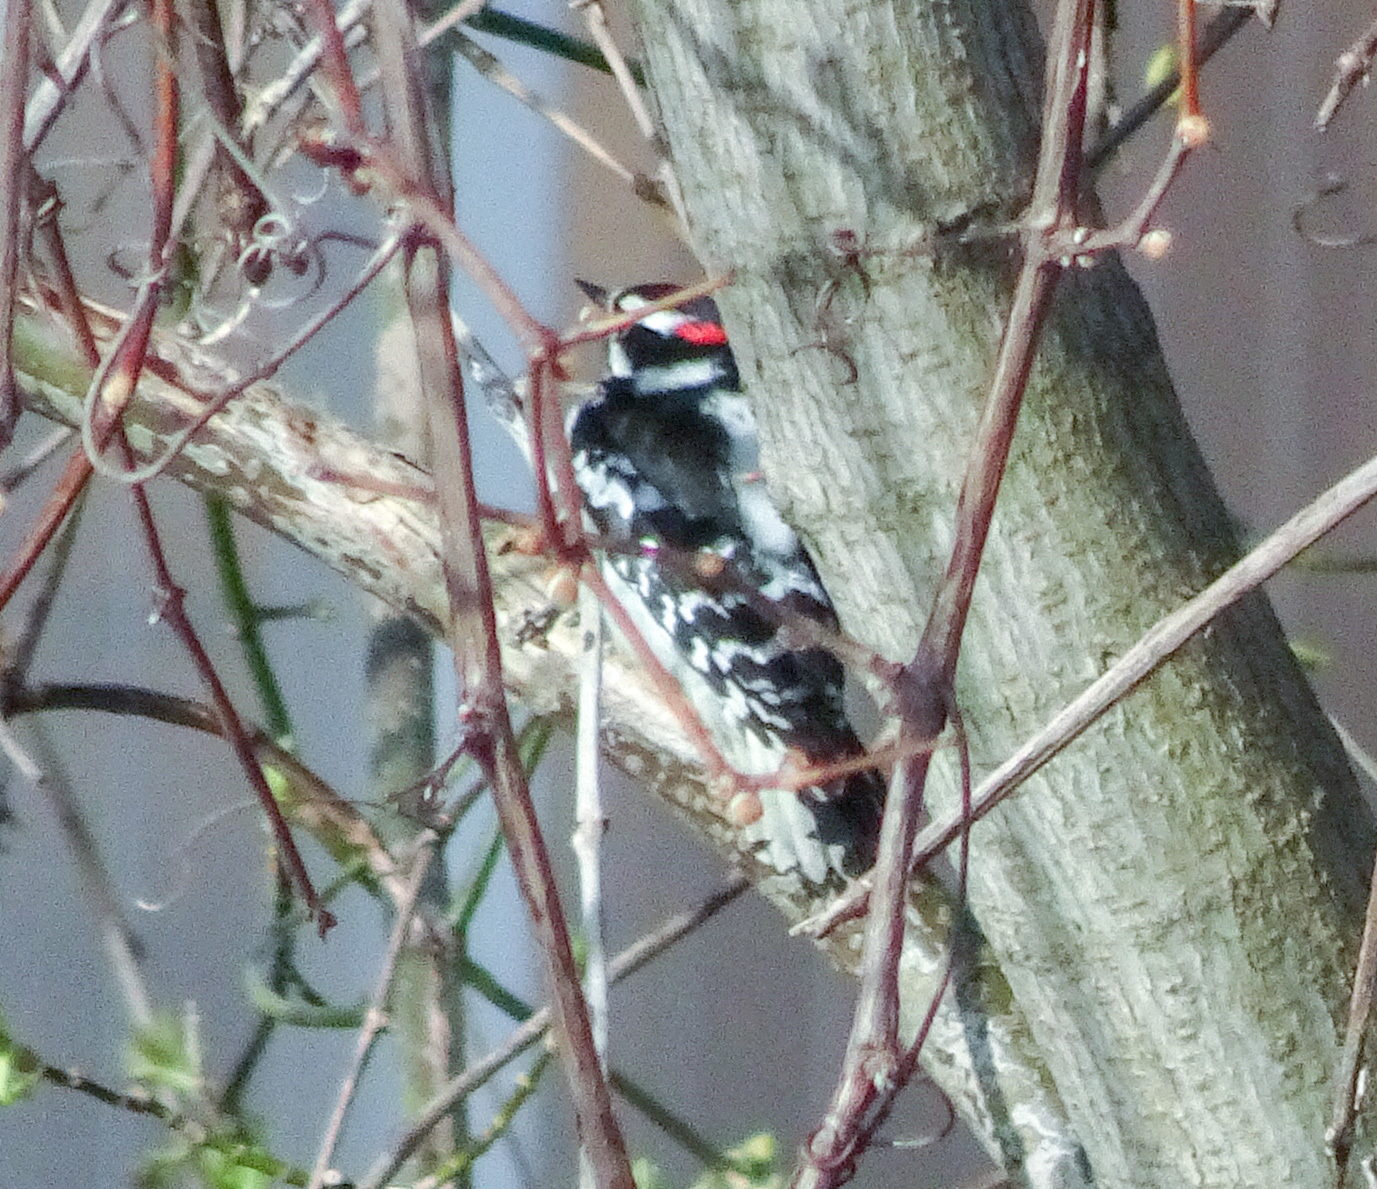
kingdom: Animalia
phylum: Chordata
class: Aves
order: Piciformes
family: Picidae
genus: Dryobates
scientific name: Dryobates pubescens
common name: Downy woodpecker
